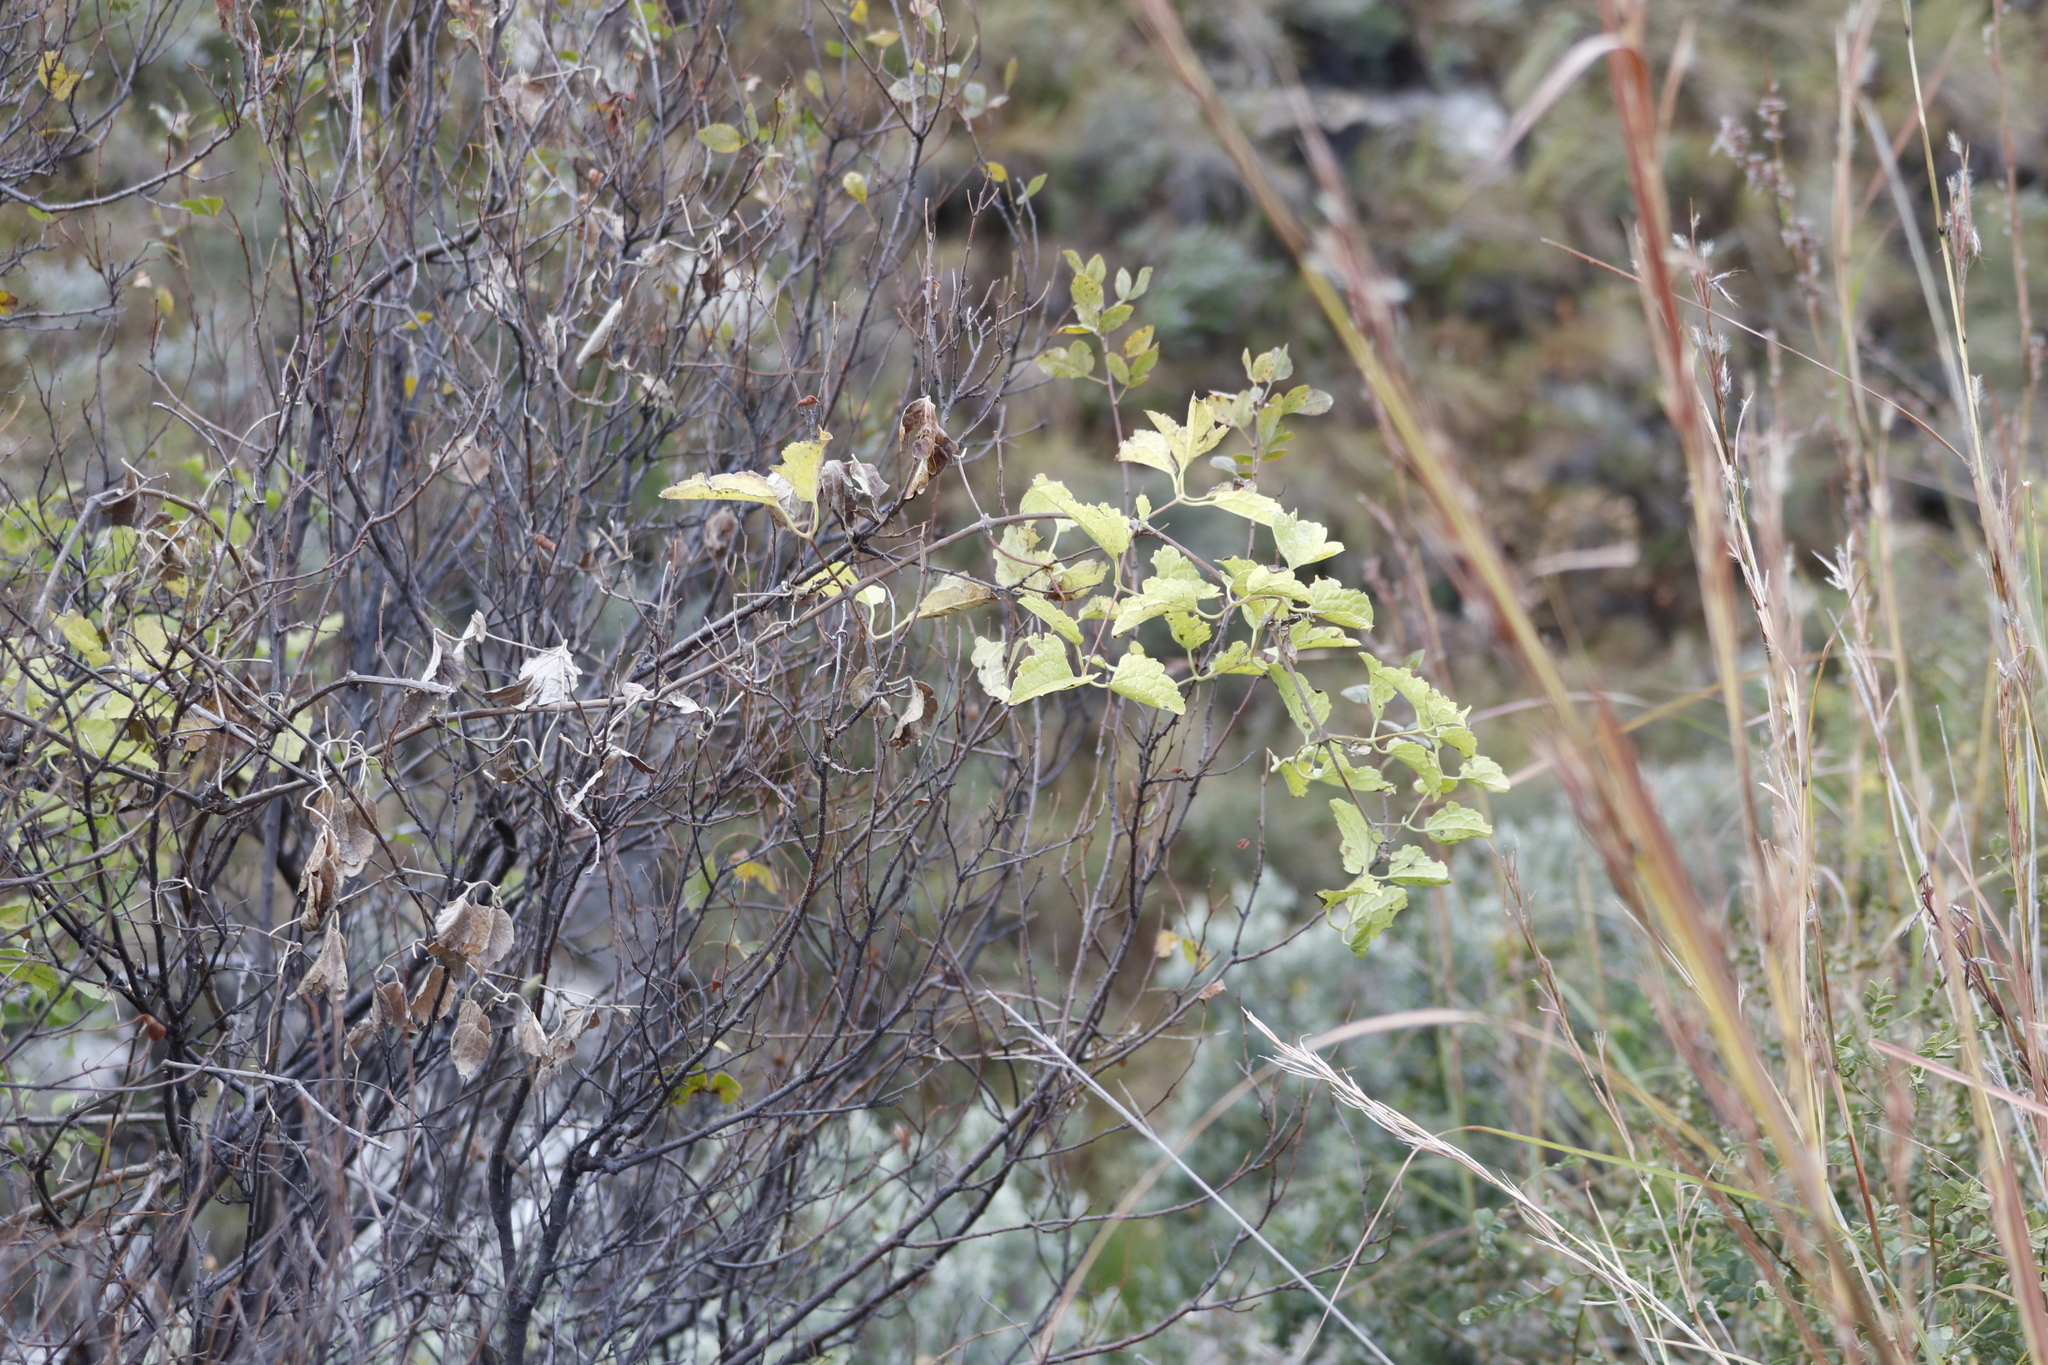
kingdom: Plantae
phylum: Tracheophyta
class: Magnoliopsida
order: Ranunculales
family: Ranunculaceae
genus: Clematis
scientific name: Clematis brachiata
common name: Traveler's-joy
